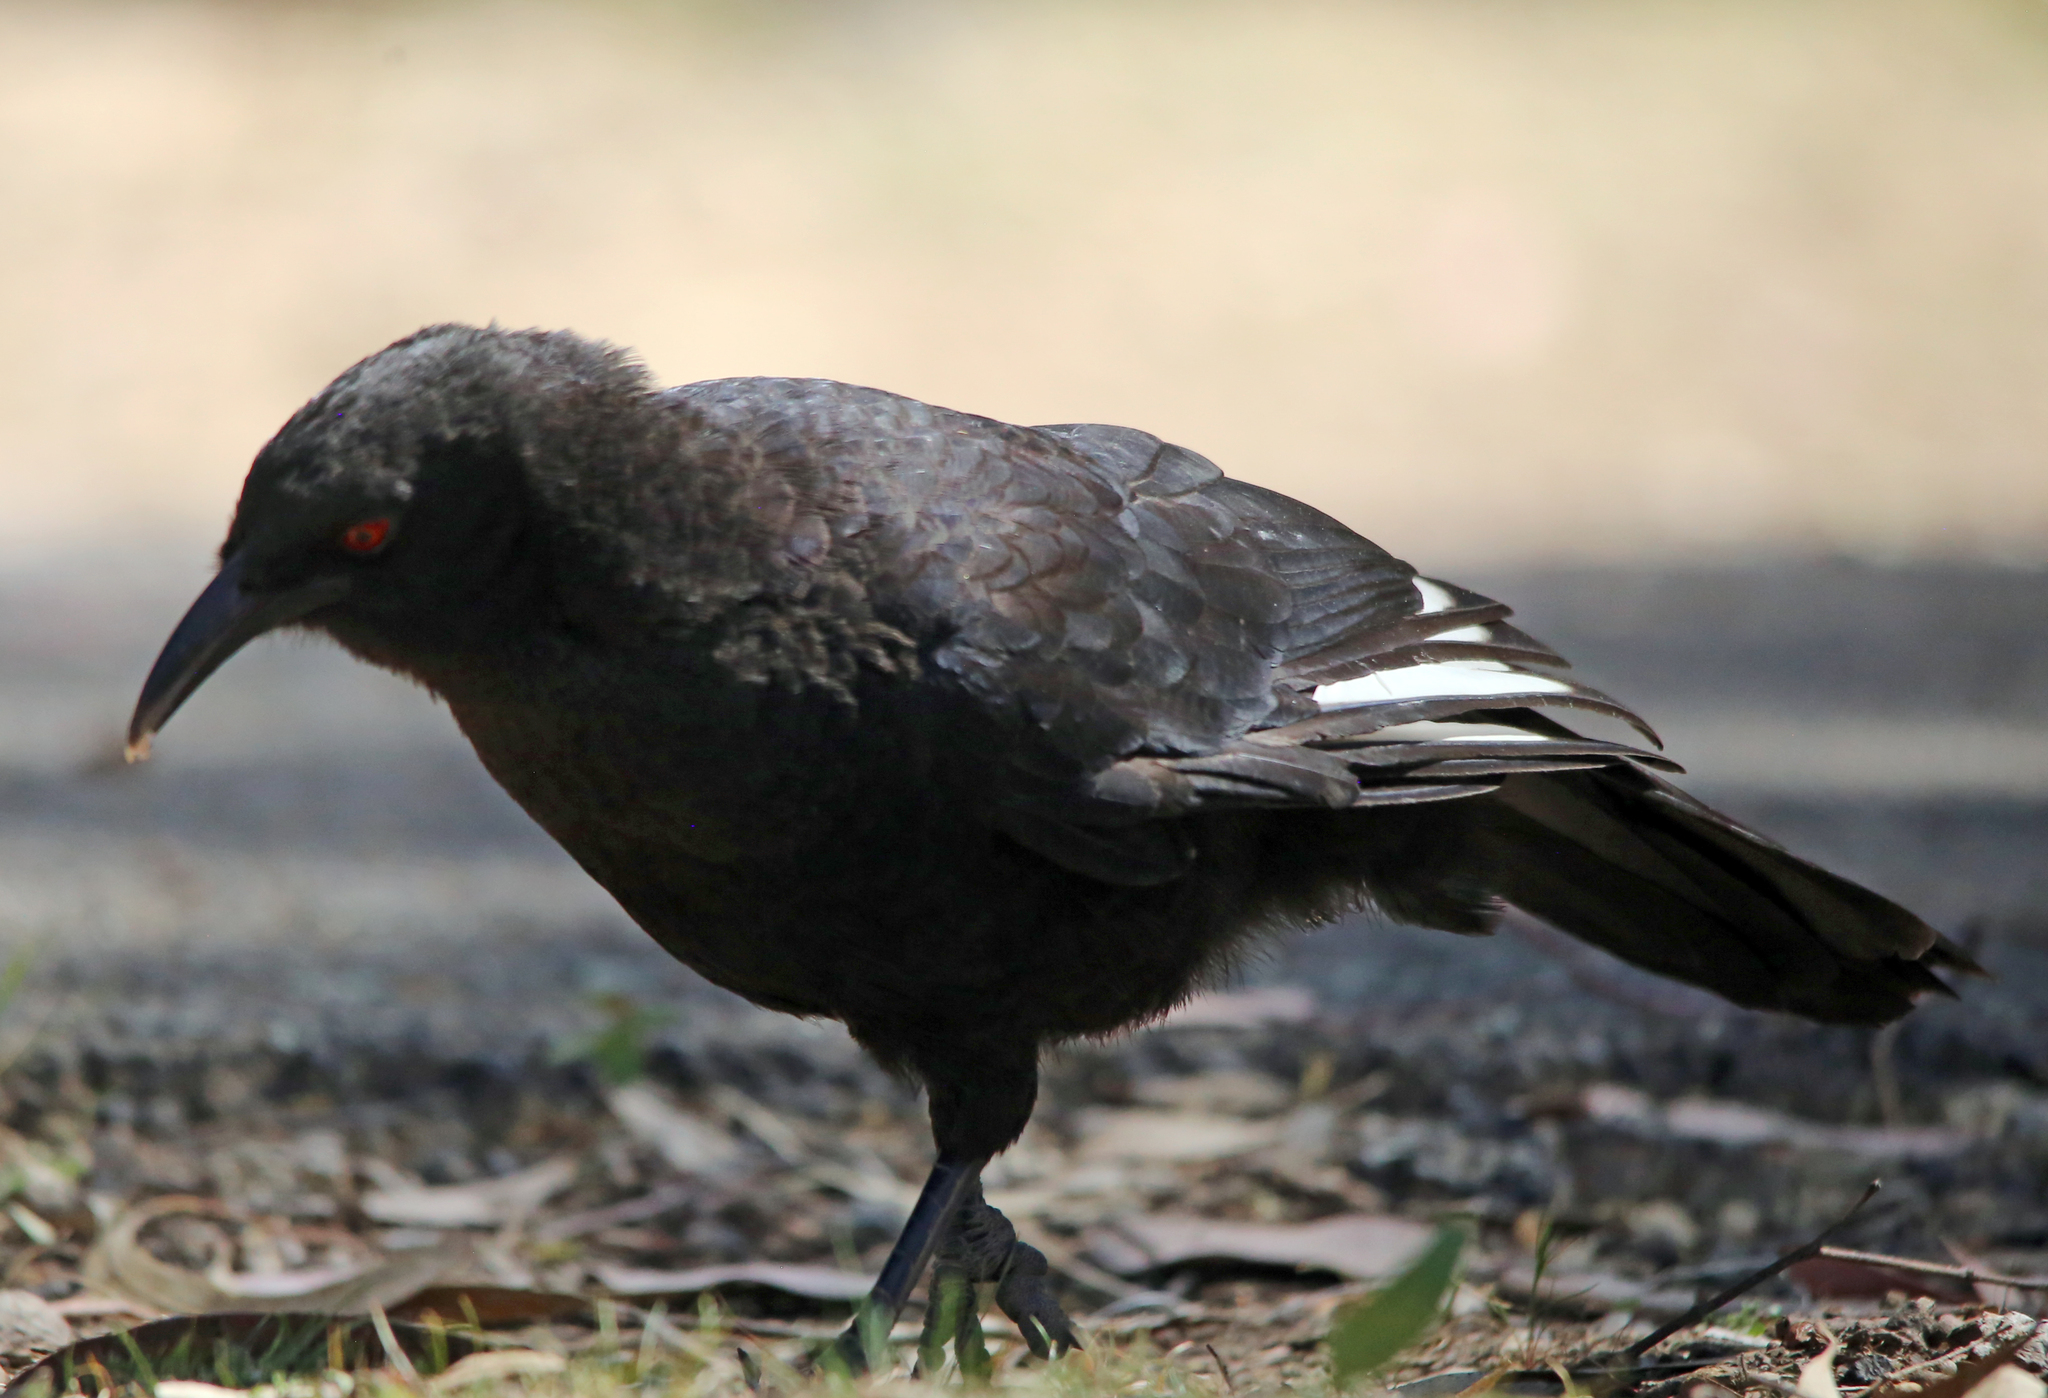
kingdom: Animalia
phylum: Chordata
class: Aves
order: Passeriformes
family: Corcoracidae
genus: Corcorax
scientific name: Corcorax melanoramphos
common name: White-winged chough
